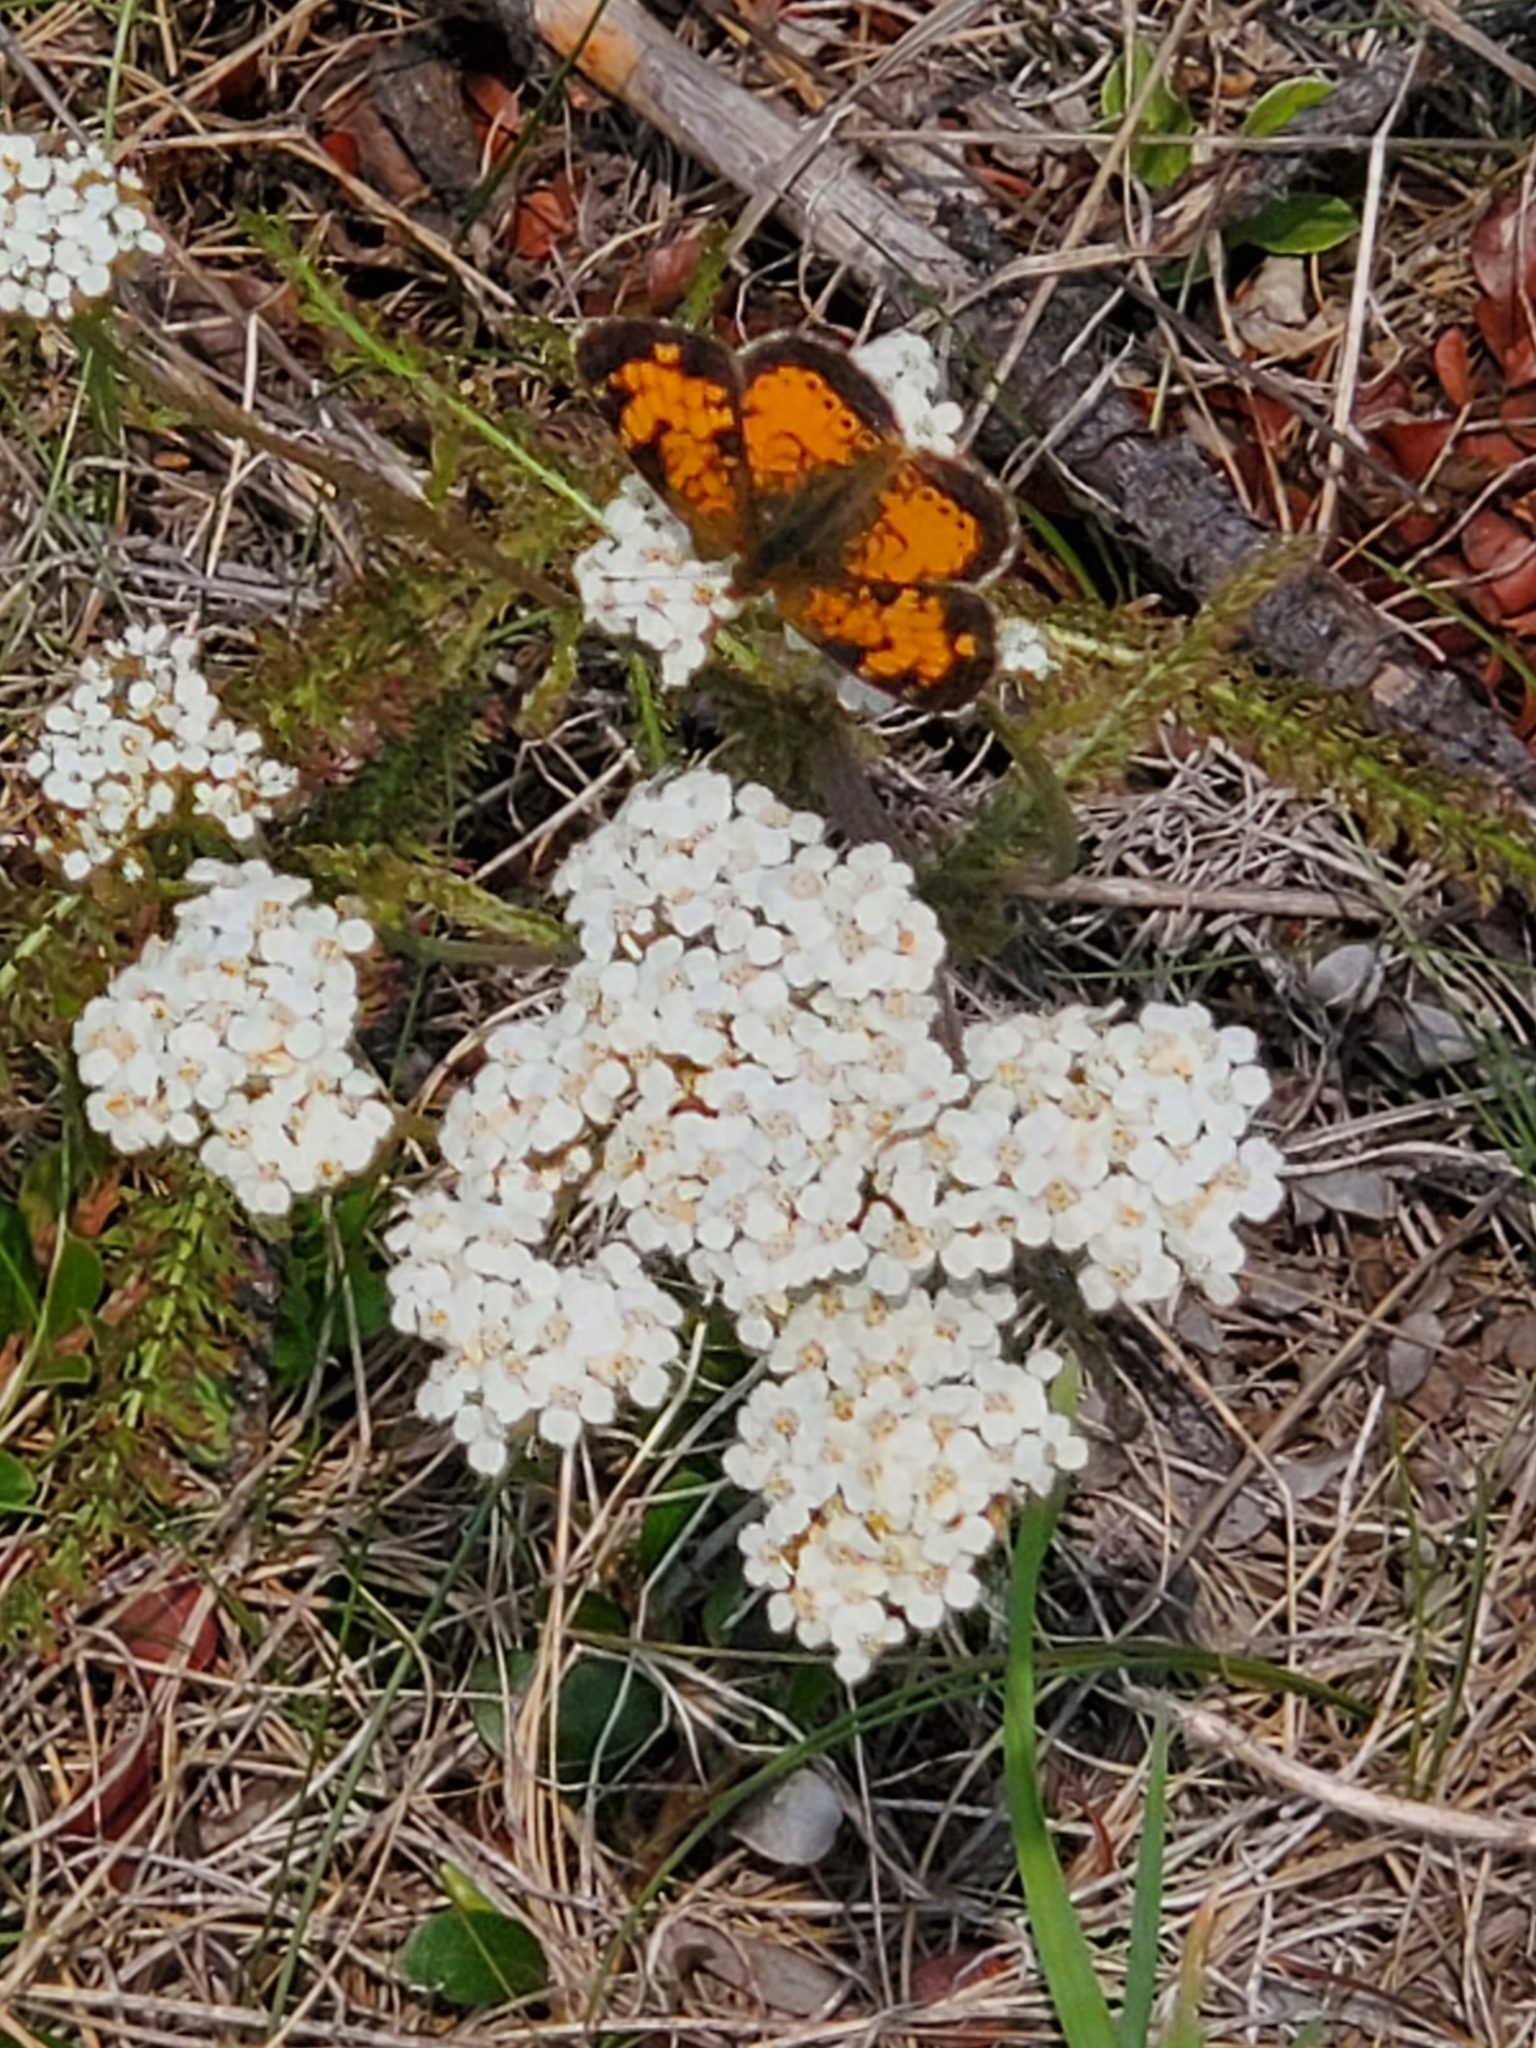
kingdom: Animalia
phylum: Arthropoda
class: Insecta
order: Lepidoptera
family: Nymphalidae
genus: Phyciodes
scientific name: Phyciodes tharos
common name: Pearl crescent
